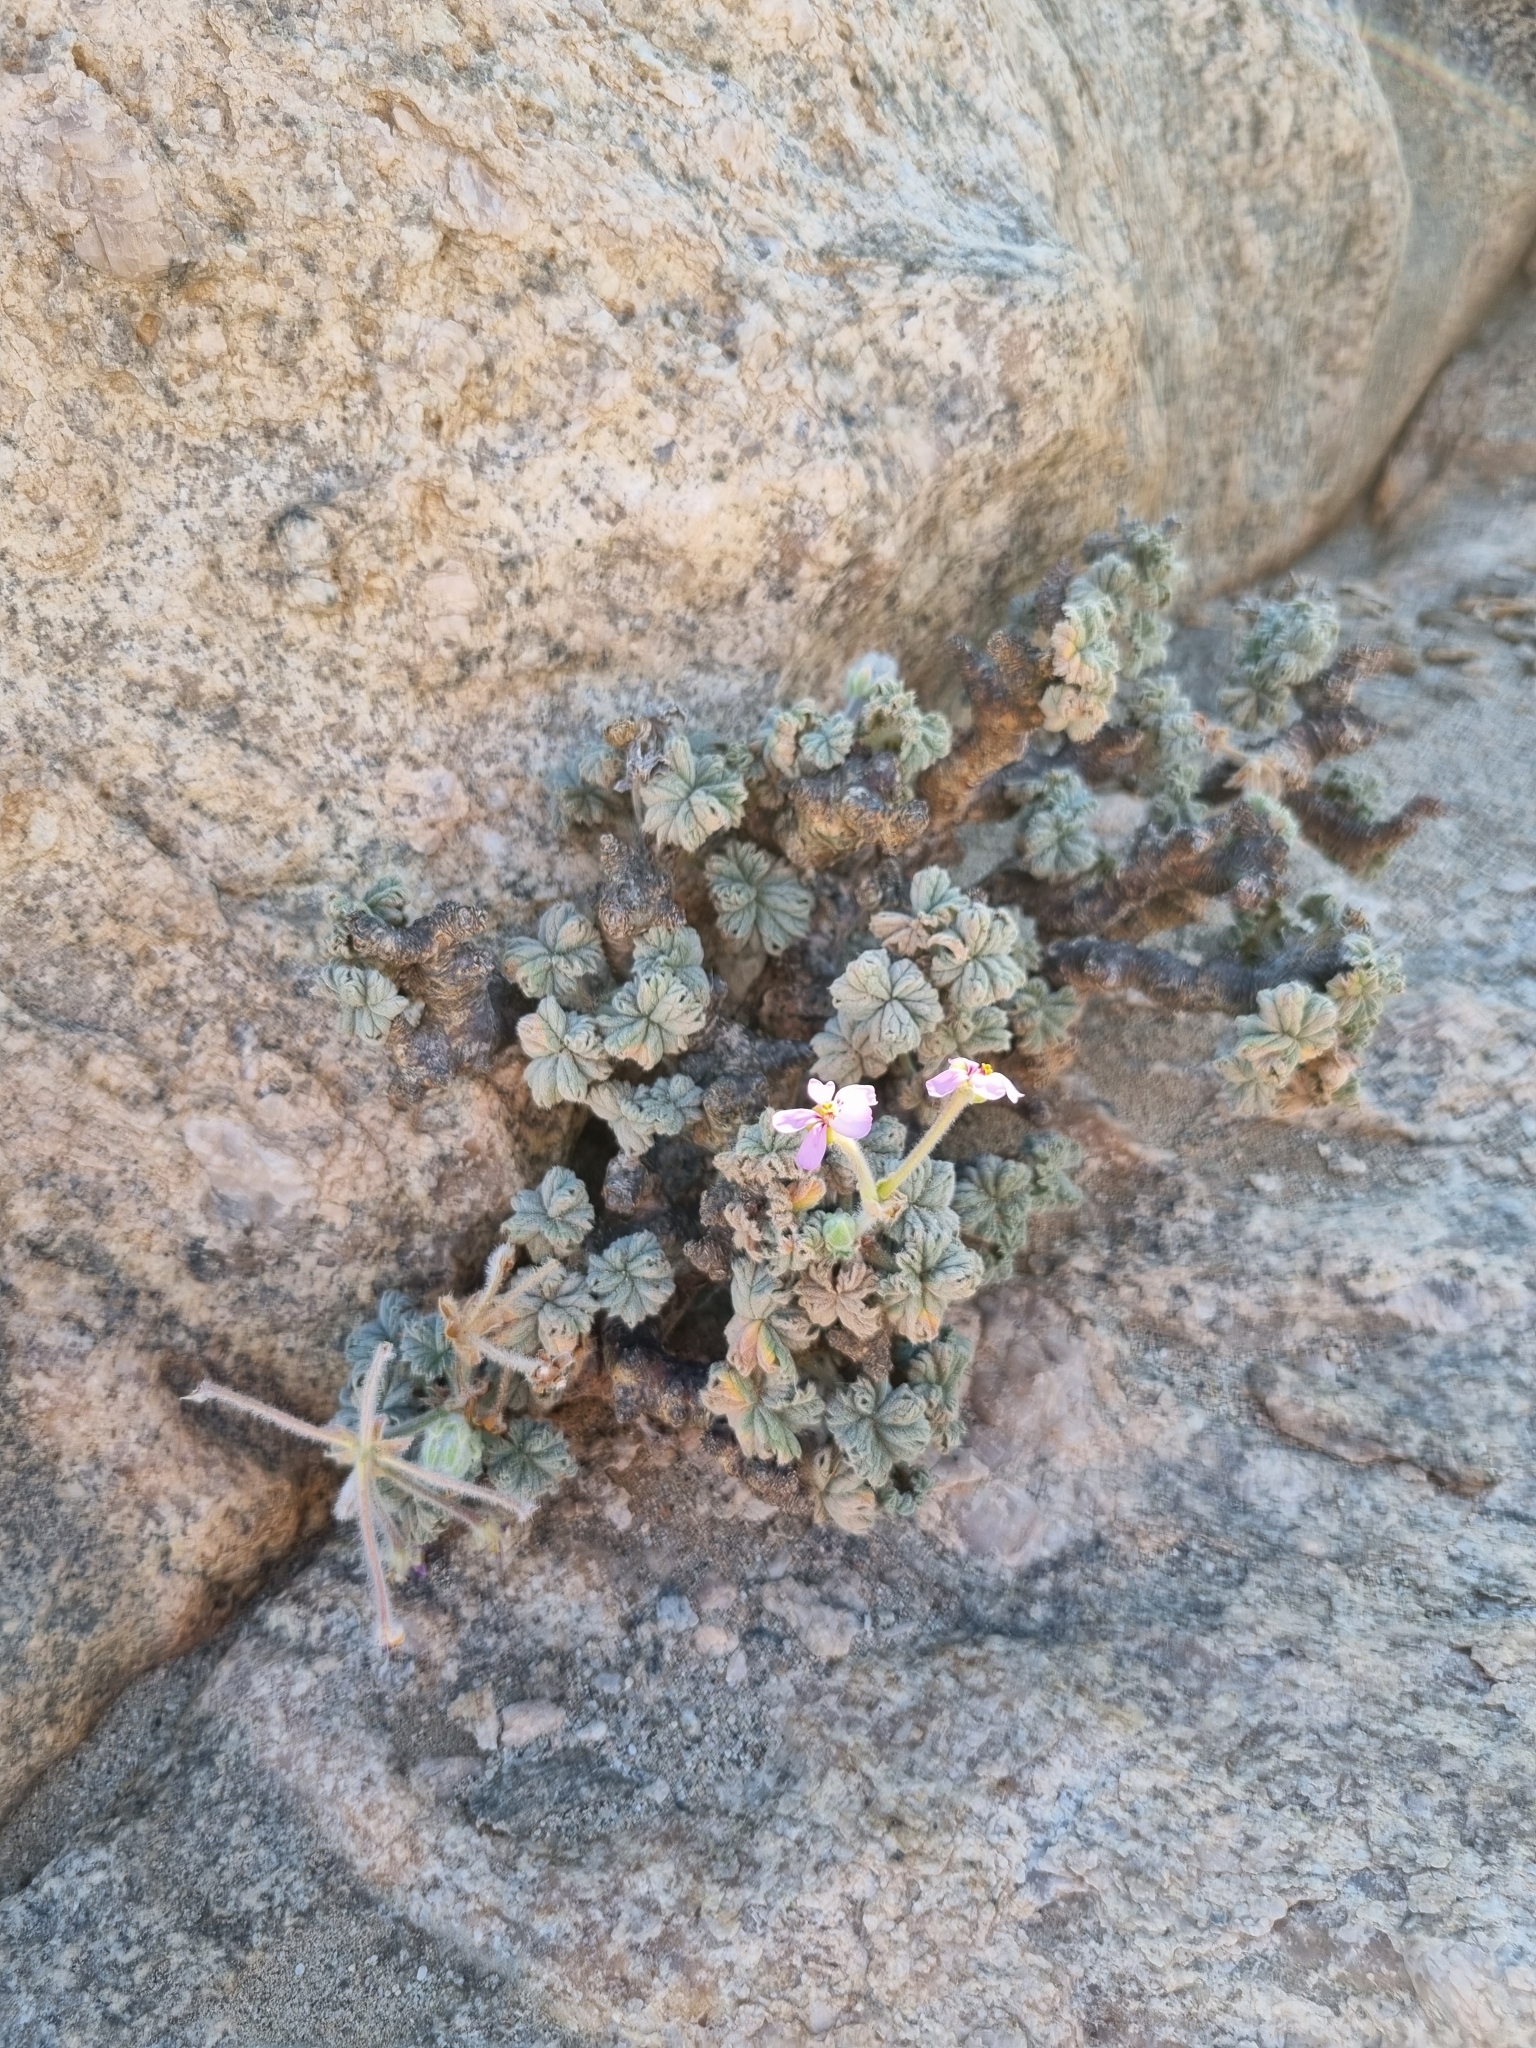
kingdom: Plantae
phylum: Tracheophyta
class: Magnoliopsida
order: Geraniales
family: Geraniaceae
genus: Pelargonium
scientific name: Pelargonium cortusifolium
